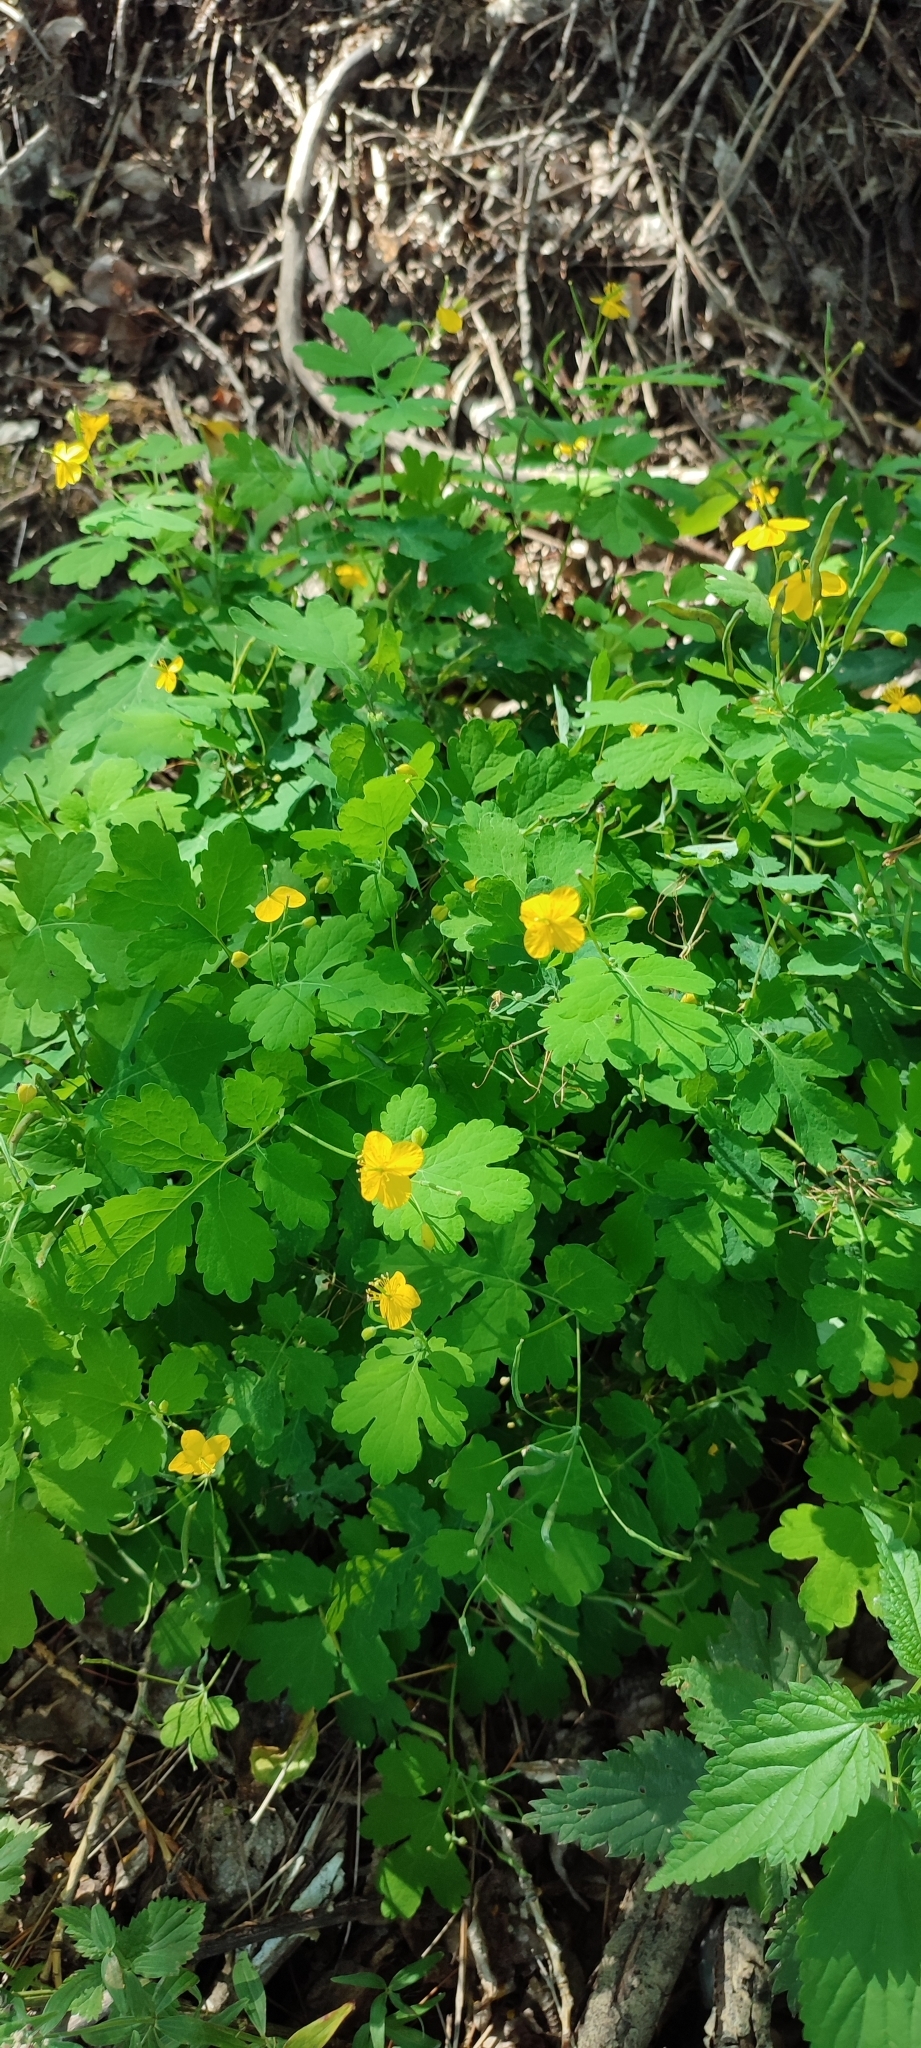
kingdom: Plantae
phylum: Tracheophyta
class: Magnoliopsida
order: Ranunculales
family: Papaveraceae
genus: Chelidonium
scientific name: Chelidonium majus
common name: Greater celandine
